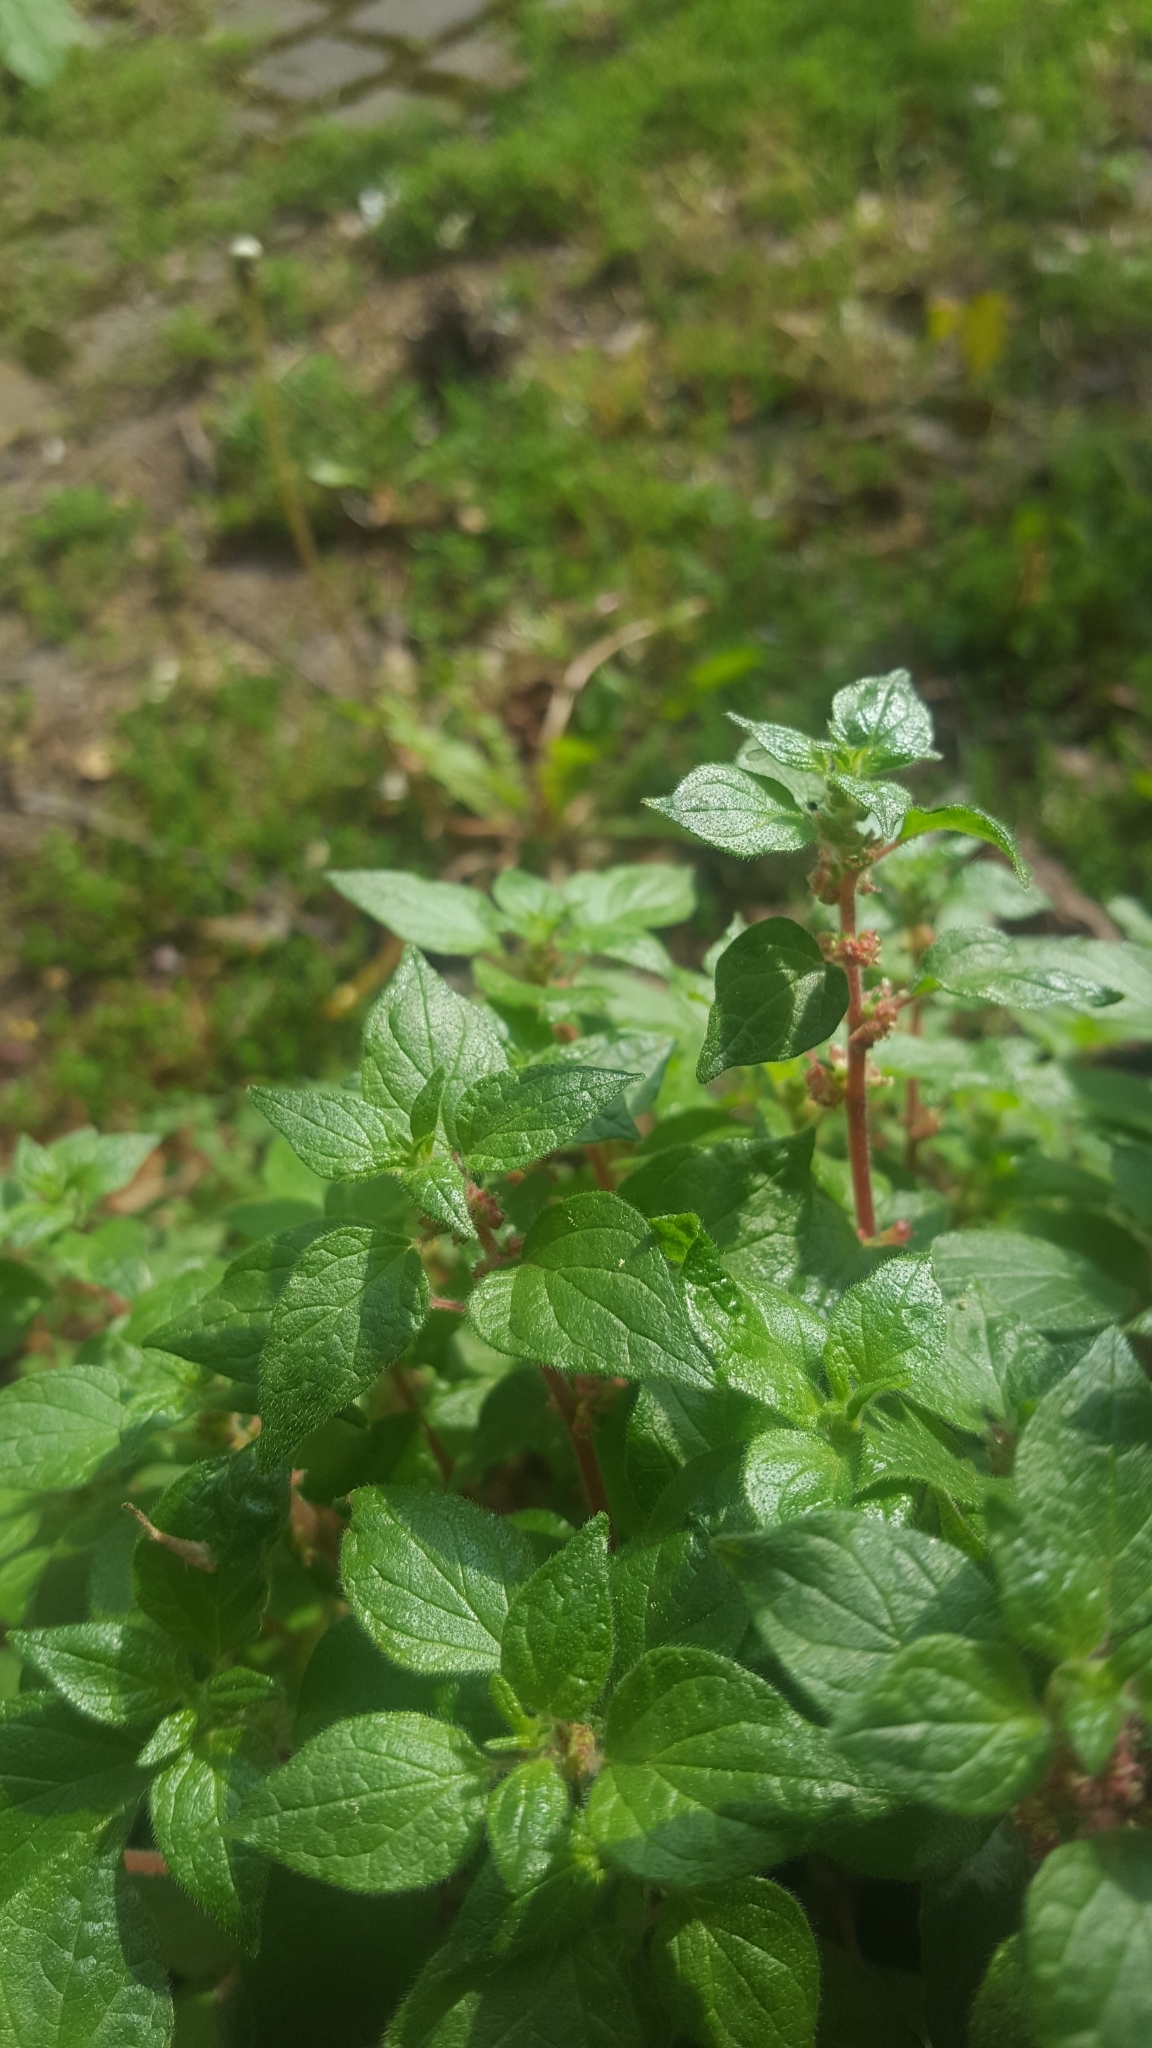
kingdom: Plantae
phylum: Tracheophyta
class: Magnoliopsida
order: Rosales
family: Urticaceae
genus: Parietaria
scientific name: Parietaria judaica
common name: Pellitory-of-the-wall
